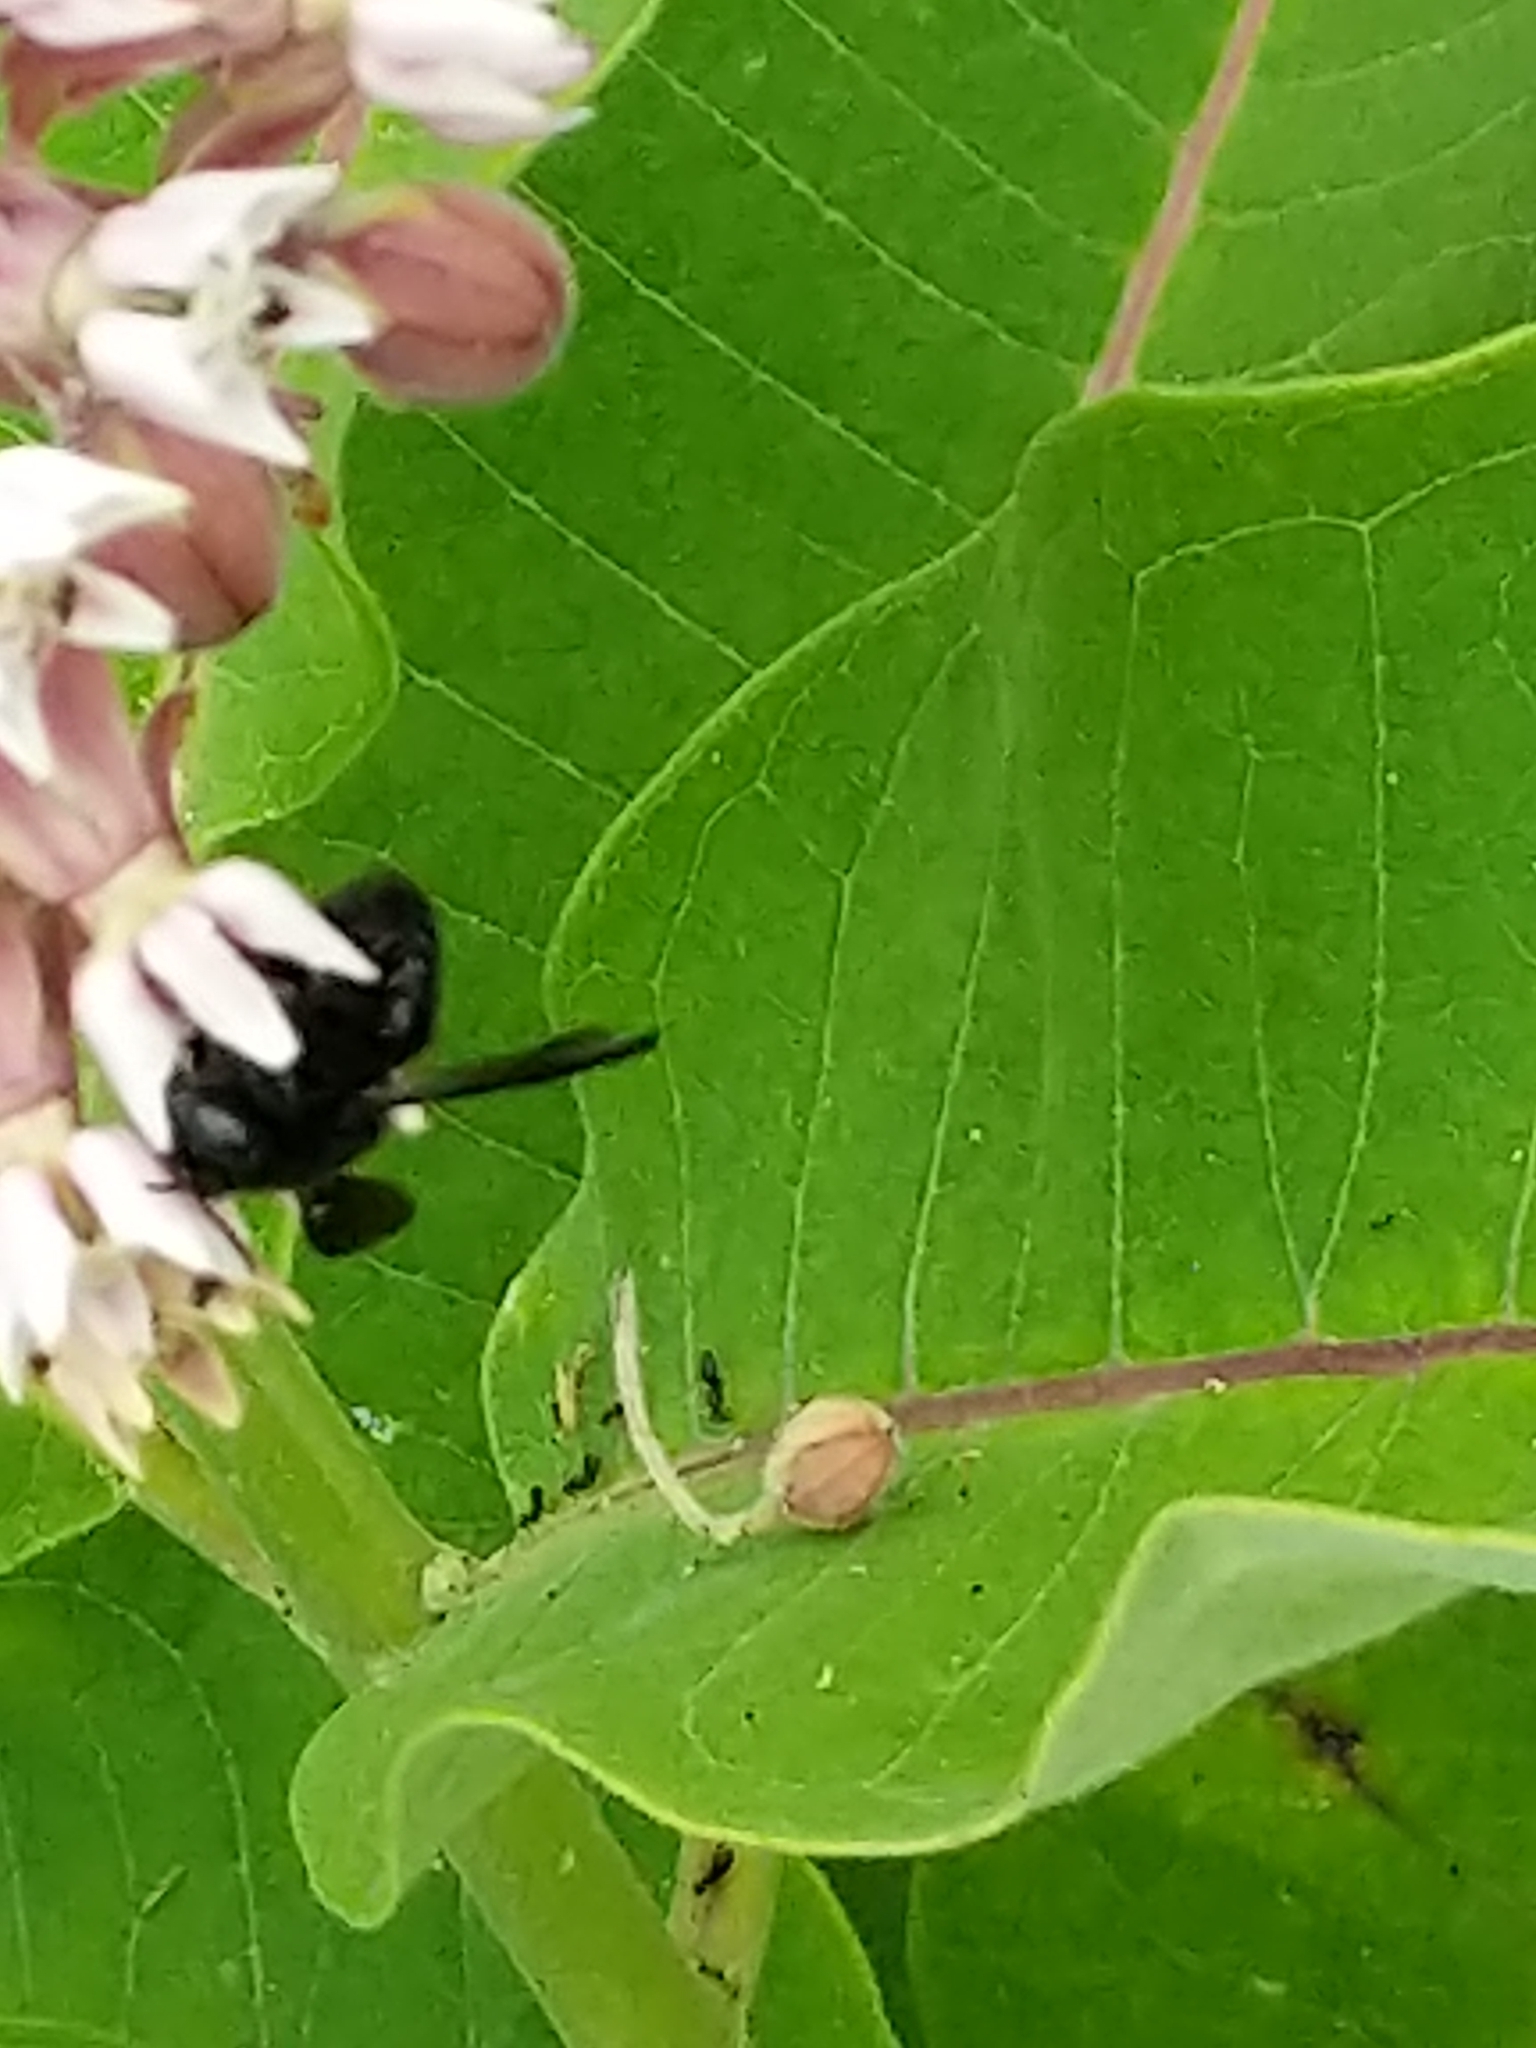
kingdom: Animalia
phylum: Arthropoda
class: Insecta
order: Hymenoptera
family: Megachilidae
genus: Megachile
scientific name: Megachile xylocopoides
